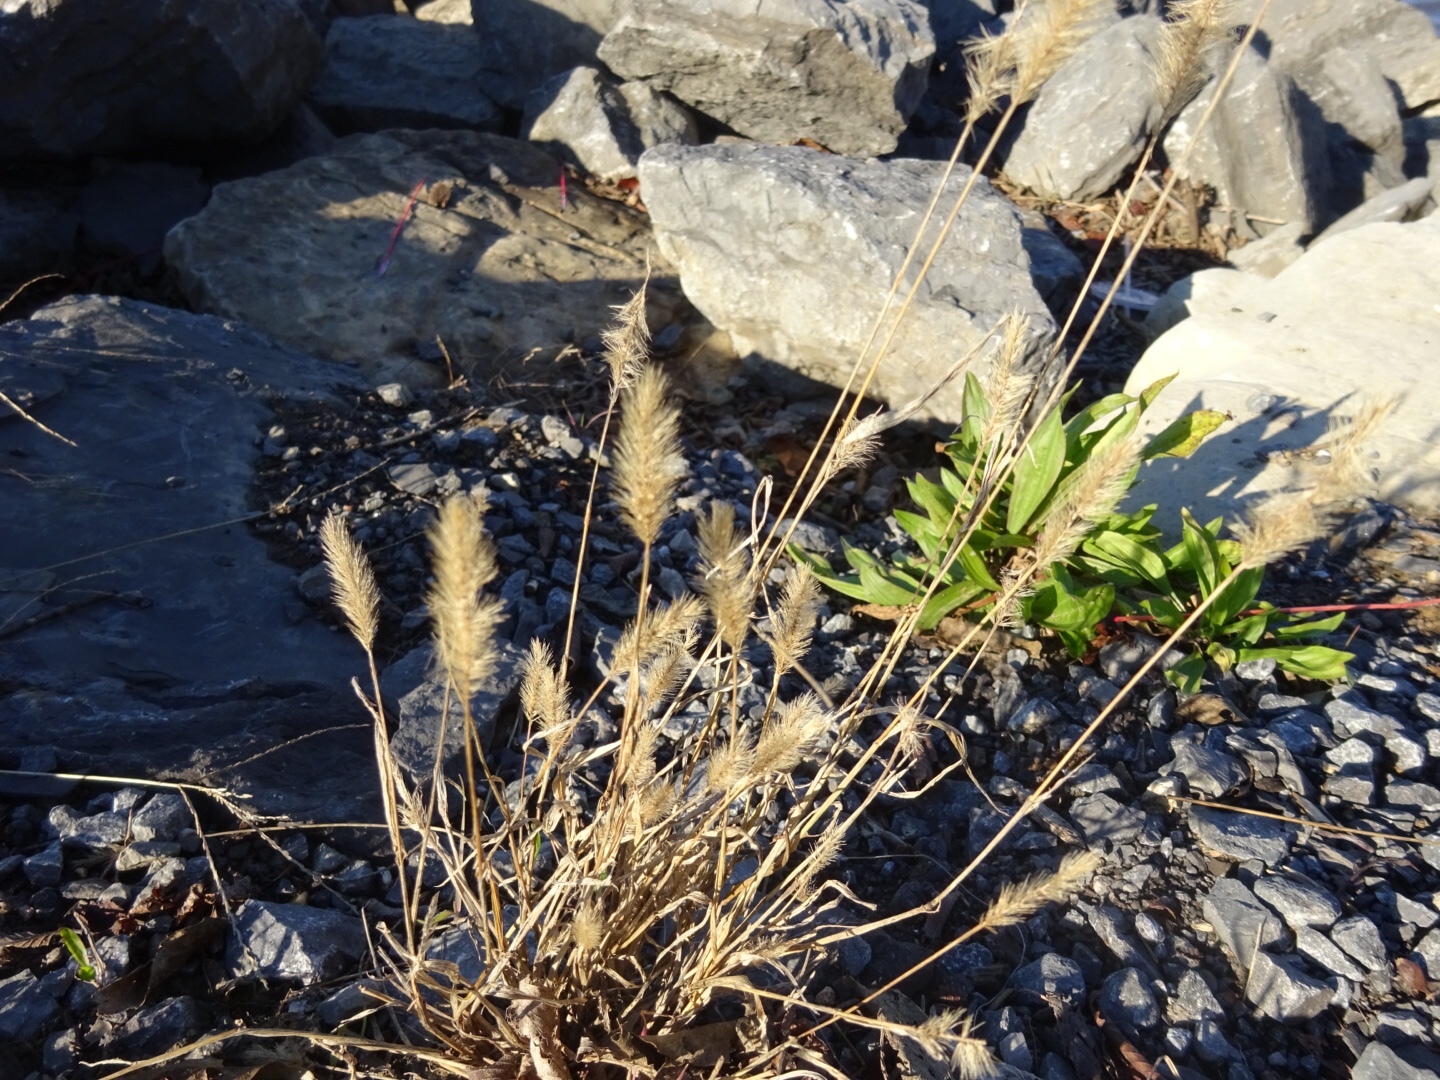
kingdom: Plantae
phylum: Tracheophyta
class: Liliopsida
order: Poales
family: Poaceae
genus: Setaria
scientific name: Setaria viridis
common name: Green bristlegrass
